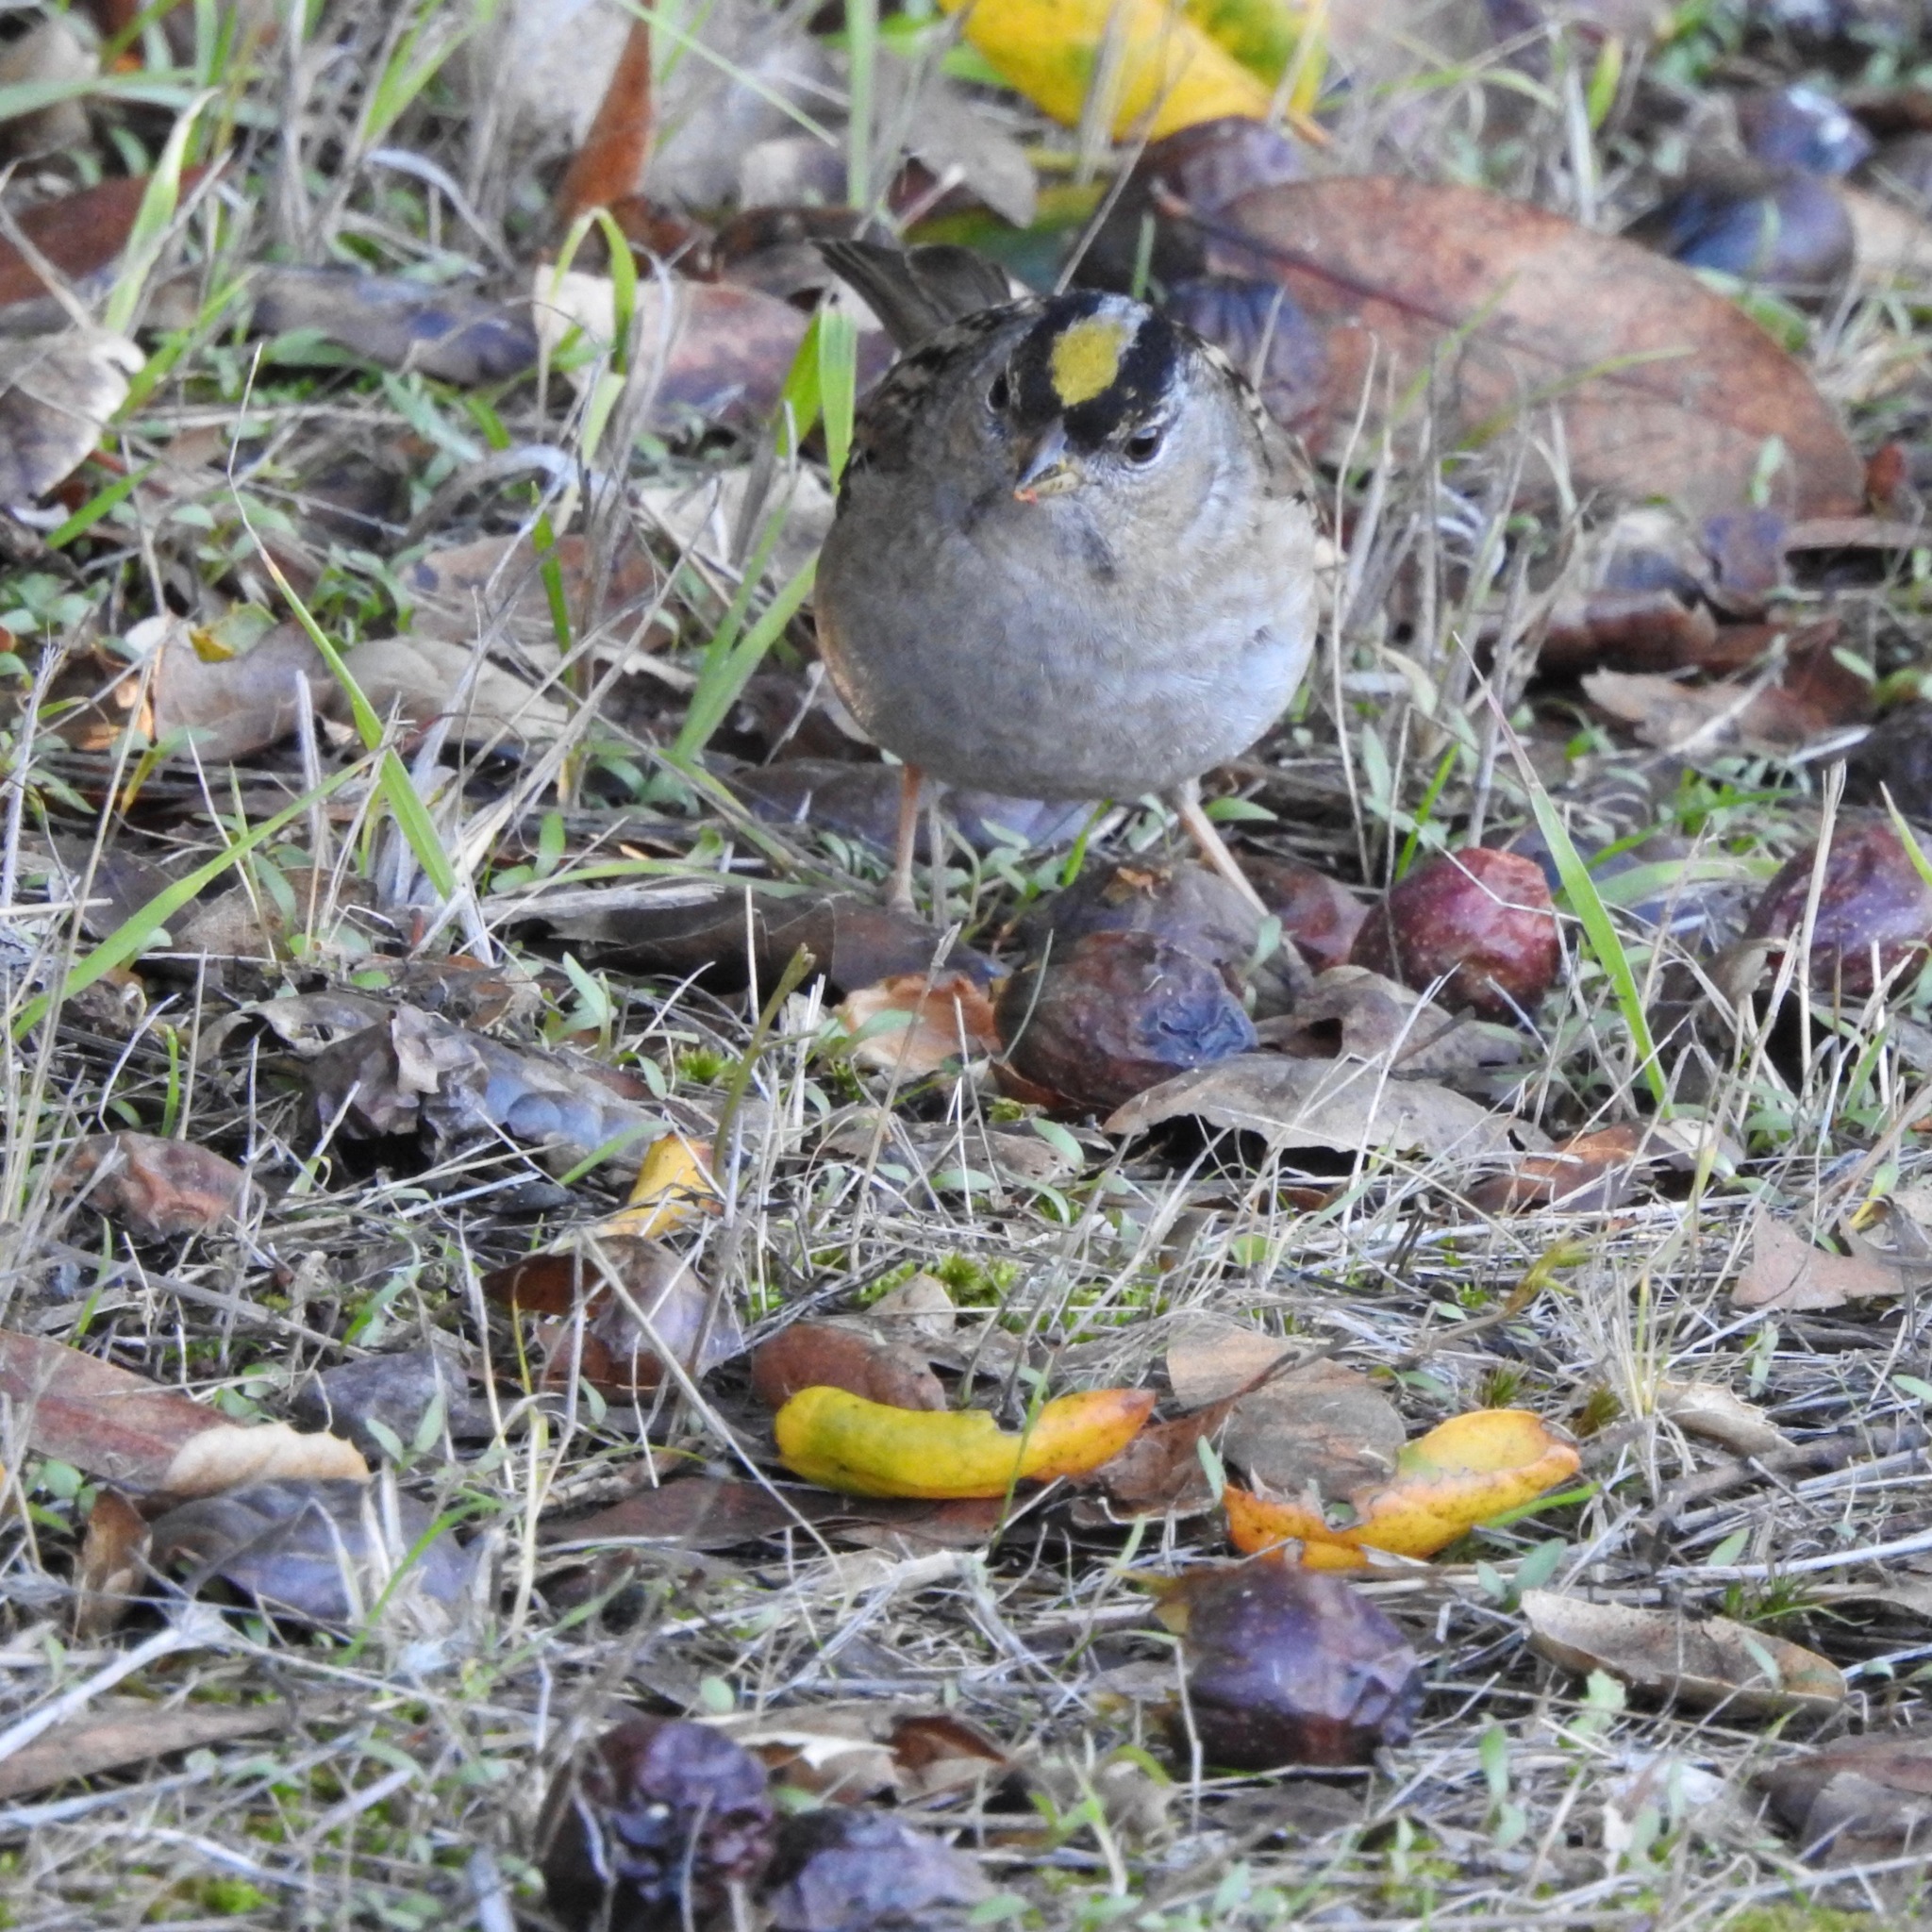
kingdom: Animalia
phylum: Chordata
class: Aves
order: Passeriformes
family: Passerellidae
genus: Zonotrichia
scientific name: Zonotrichia atricapilla
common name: Golden-crowned sparrow
